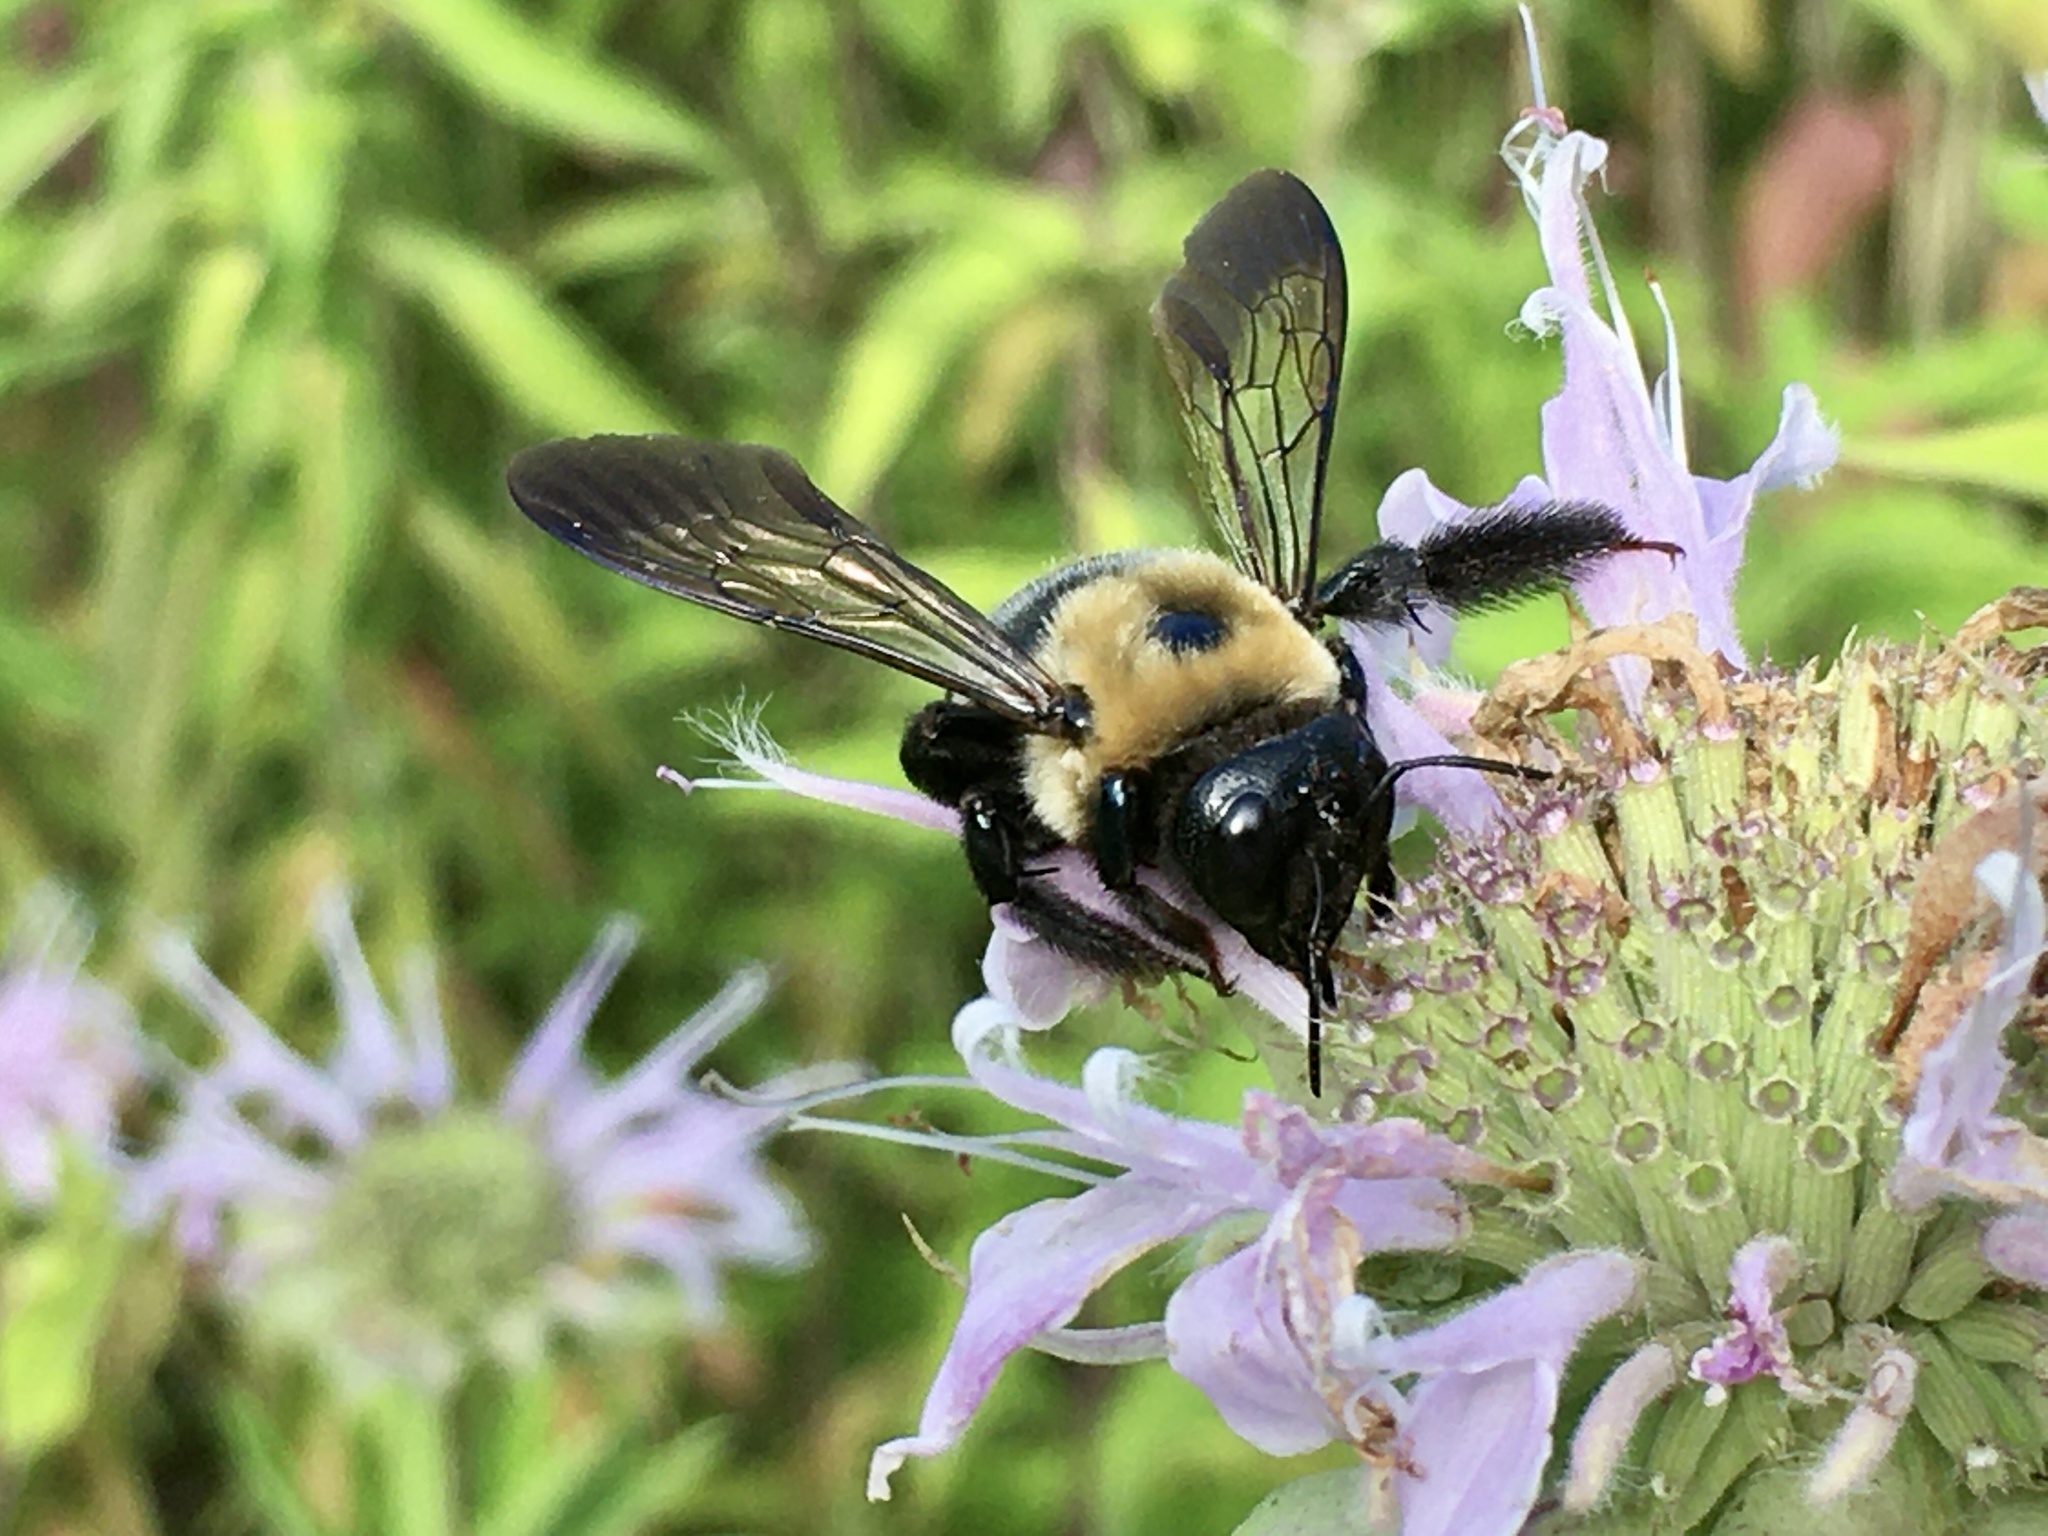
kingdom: Animalia
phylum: Arthropoda
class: Insecta
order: Hymenoptera
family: Apidae
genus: Xylocopa
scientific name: Xylocopa virginica
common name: Carpenter bee
